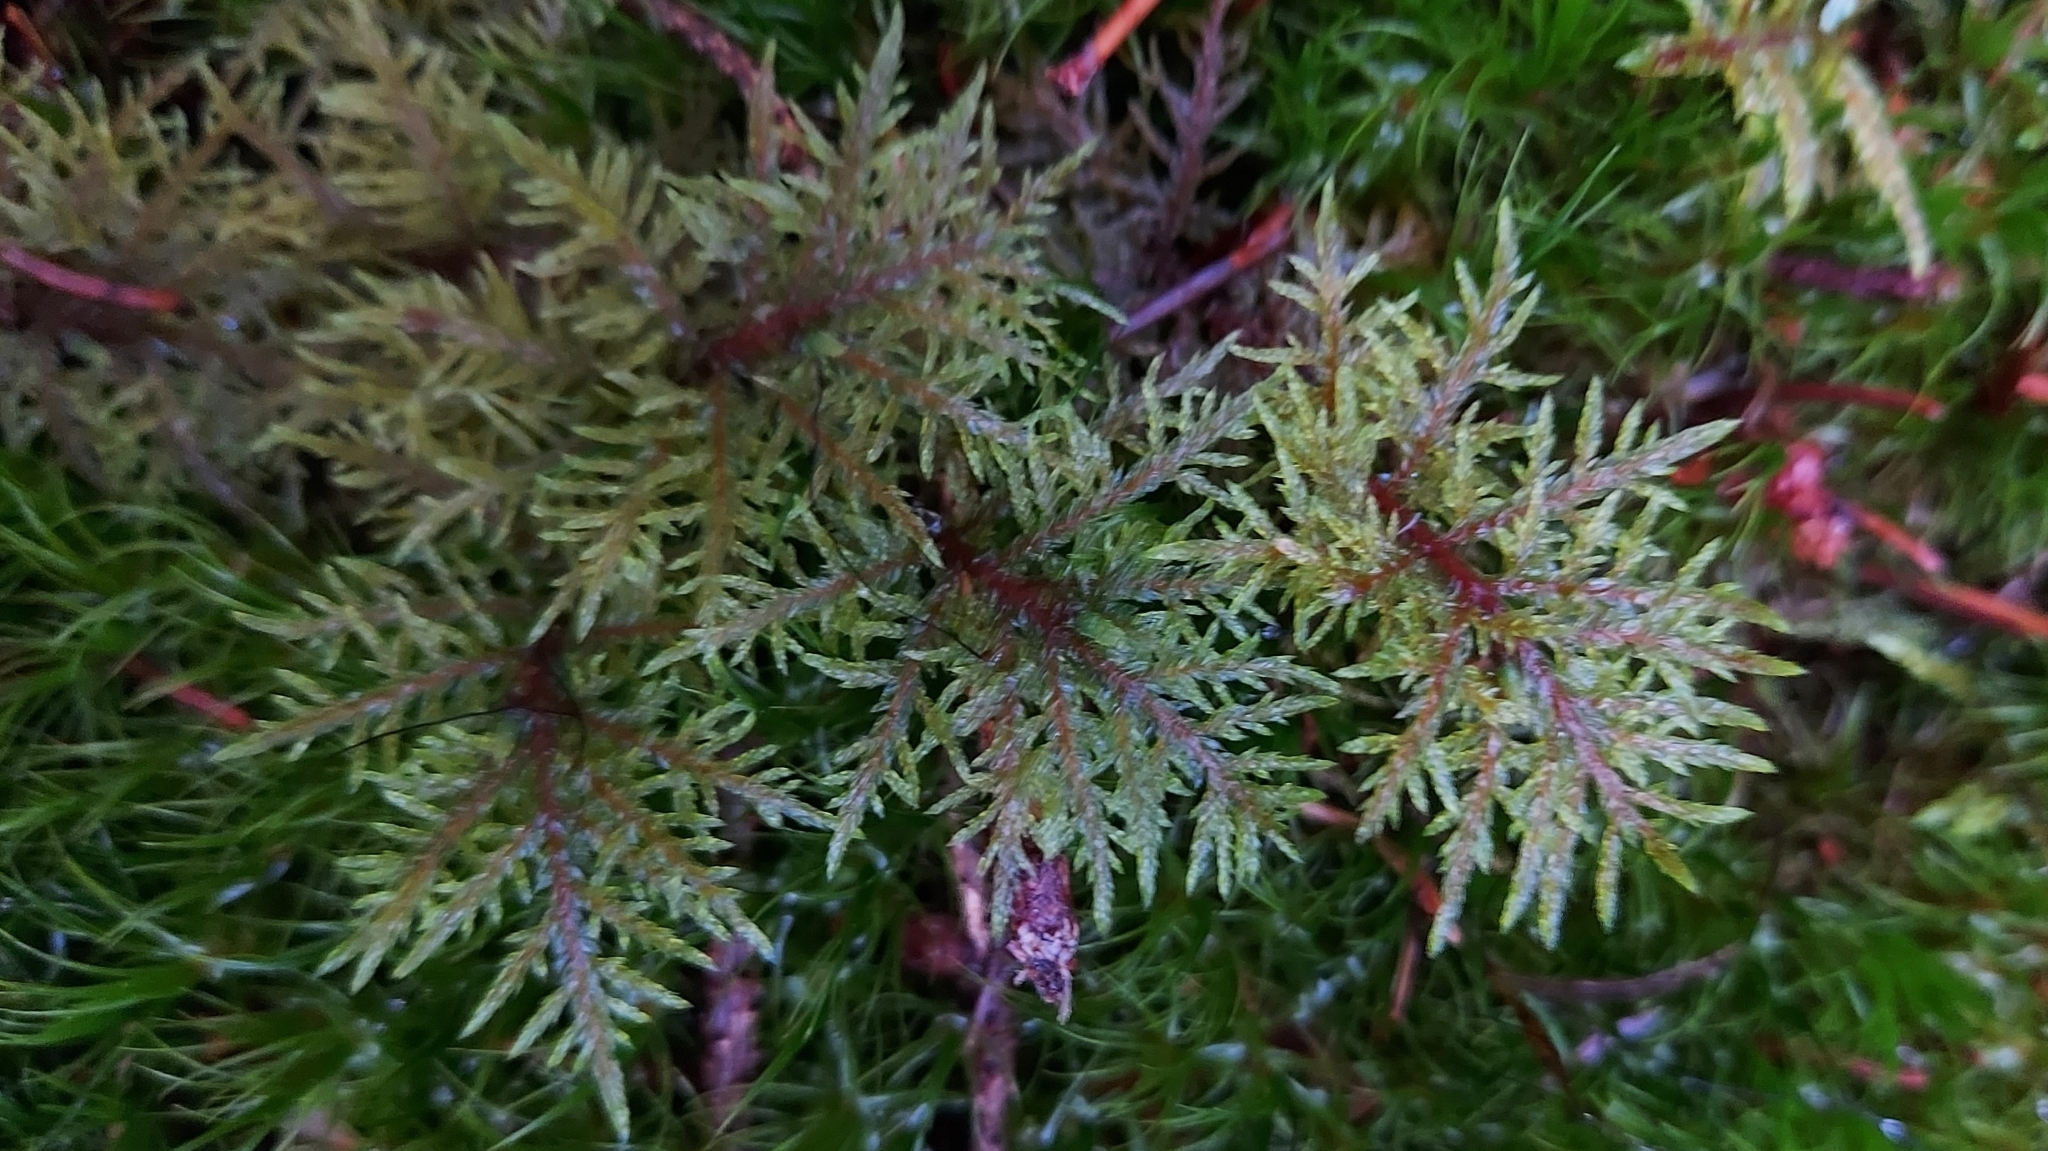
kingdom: Plantae
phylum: Bryophyta
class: Bryopsida
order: Hypnales
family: Hylocomiaceae
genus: Hylocomium
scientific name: Hylocomium splendens
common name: Stairstep moss
